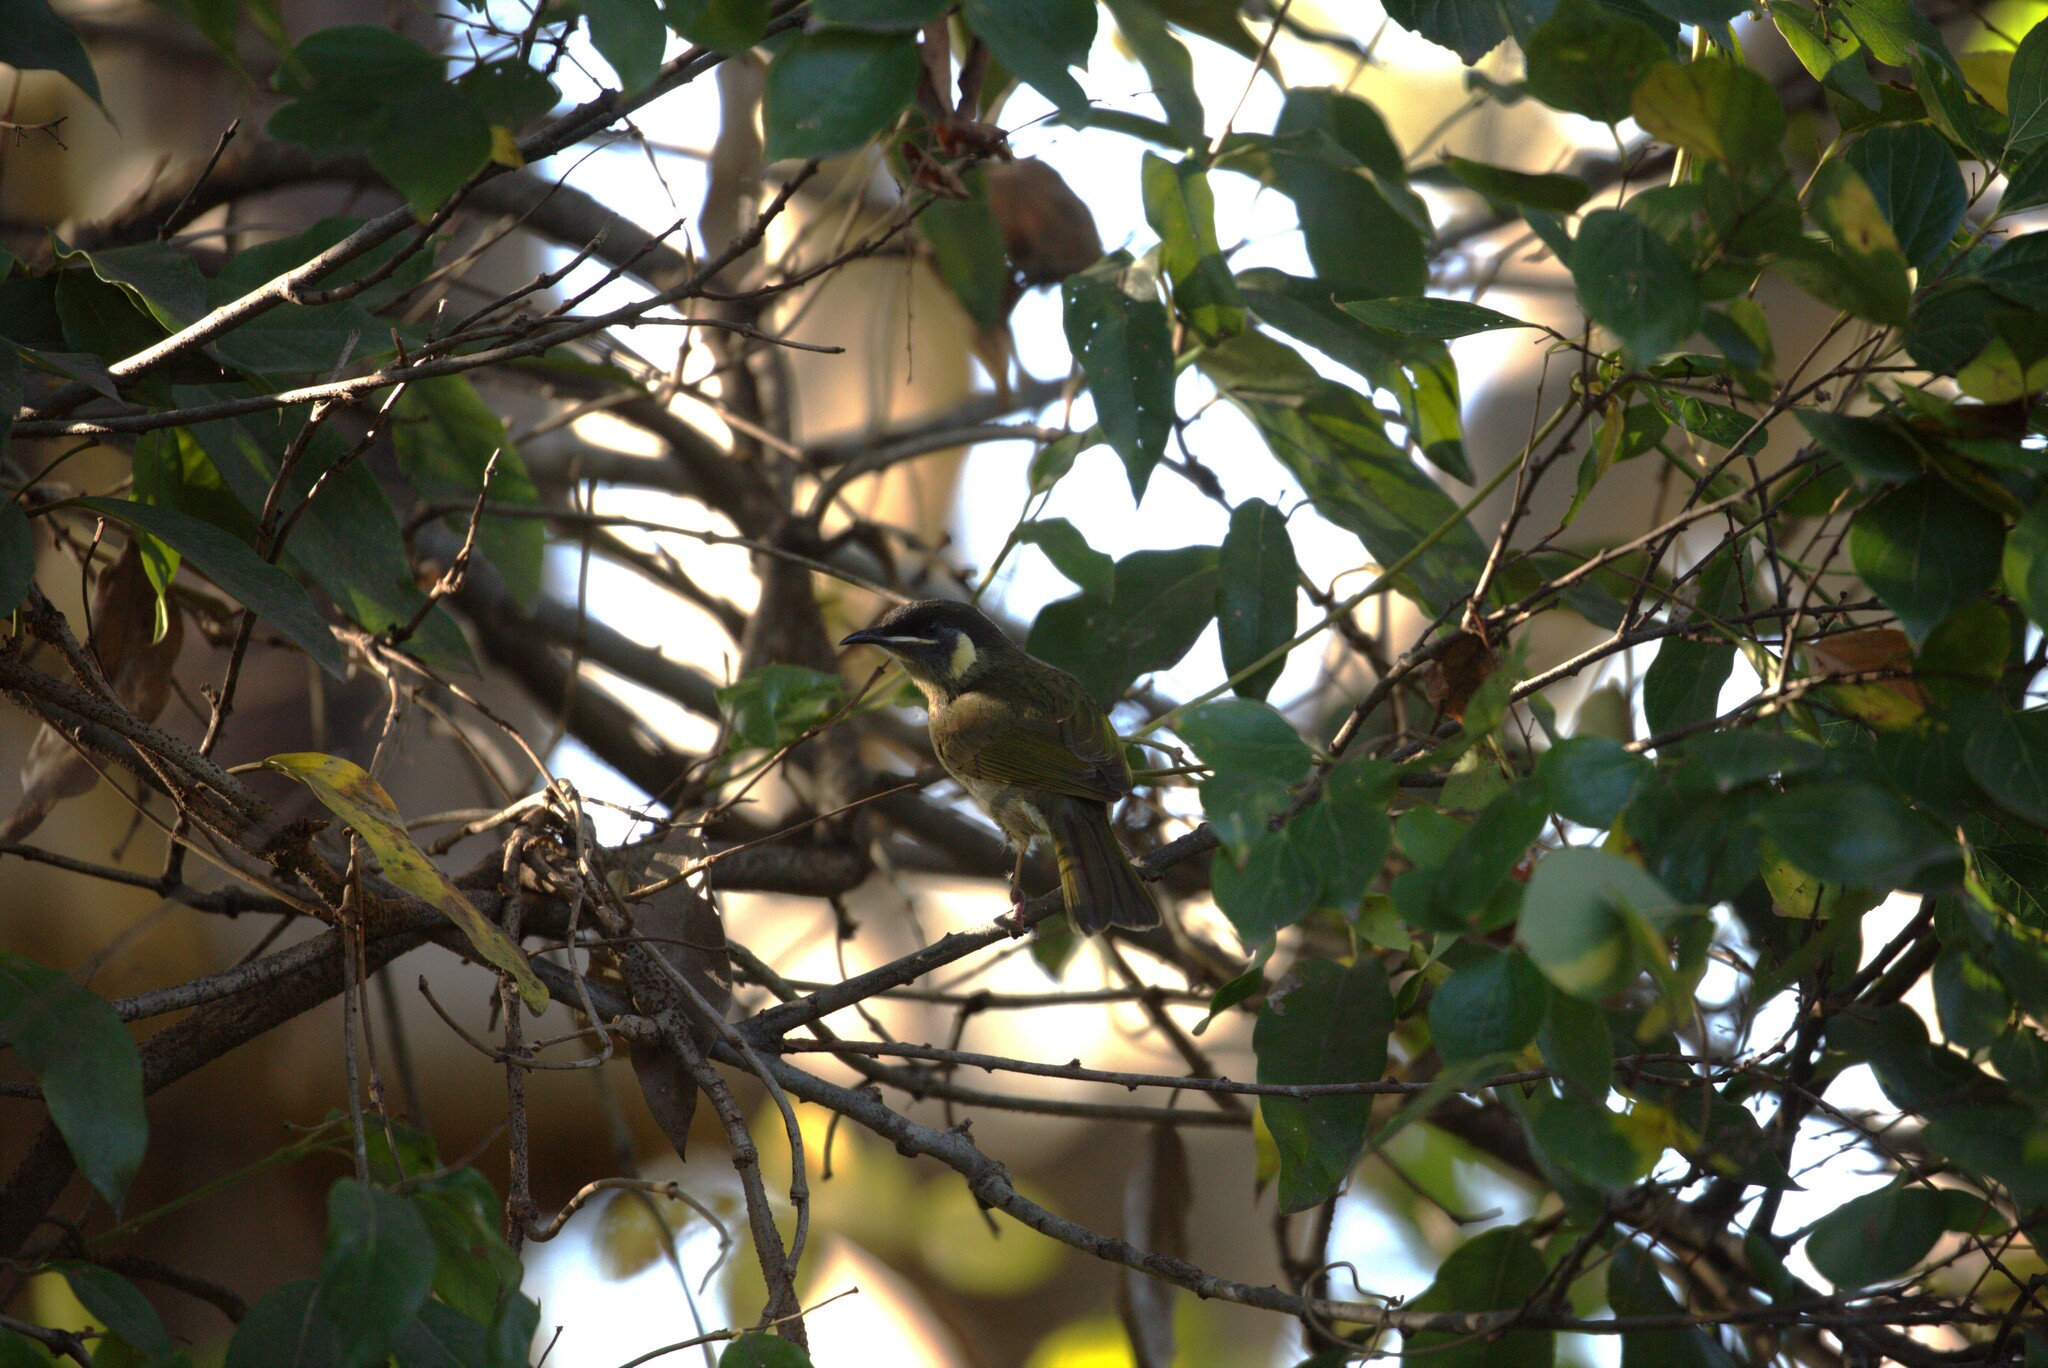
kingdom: Animalia
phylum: Chordata
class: Aves
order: Passeriformes
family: Meliphagidae
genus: Meliphaga
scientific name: Meliphaga lewinii
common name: Lewin's honeyeater
